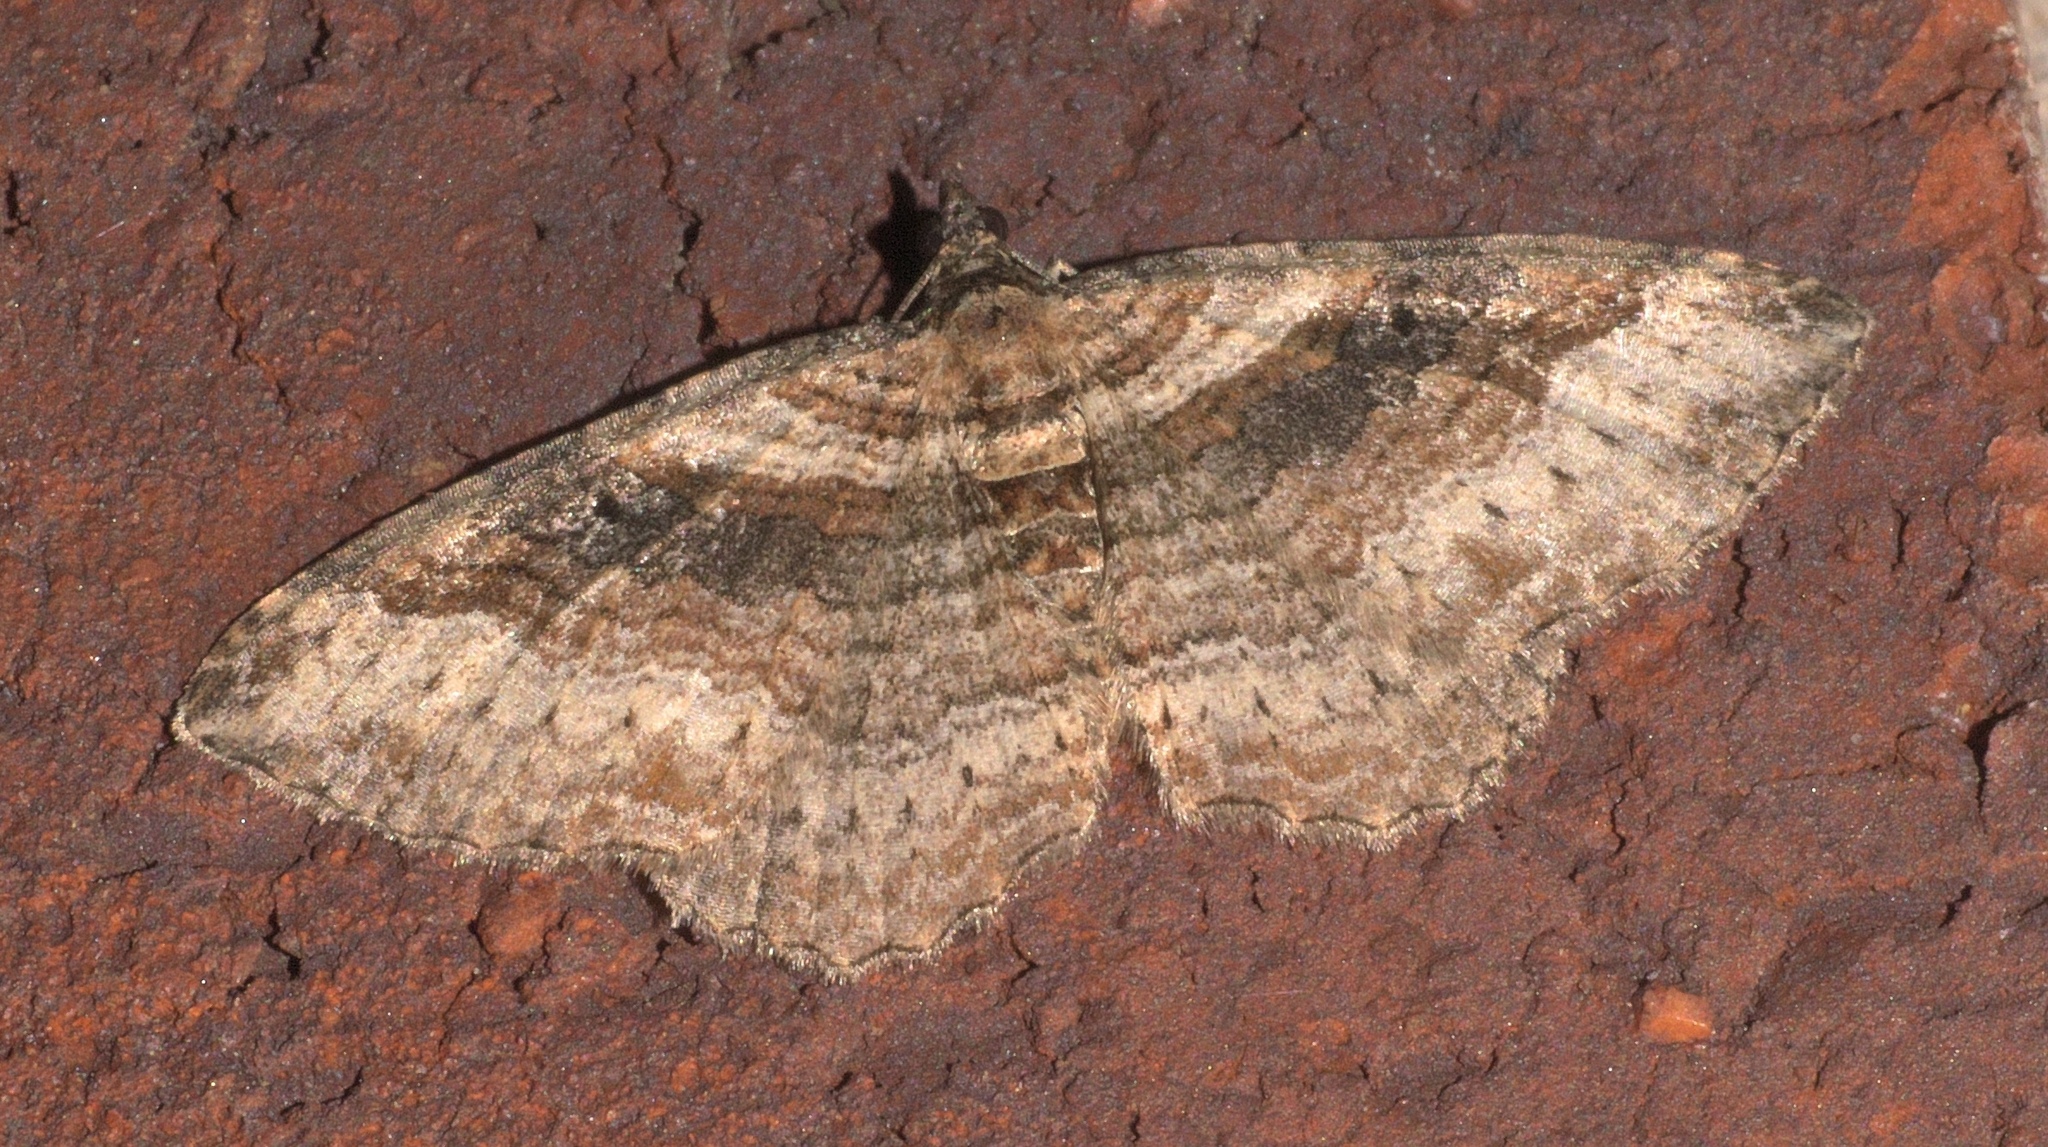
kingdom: Animalia
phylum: Arthropoda
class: Insecta
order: Lepidoptera
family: Geometridae
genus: Costaconvexa
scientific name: Costaconvexa centrostrigaria
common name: Bent-line carpet
